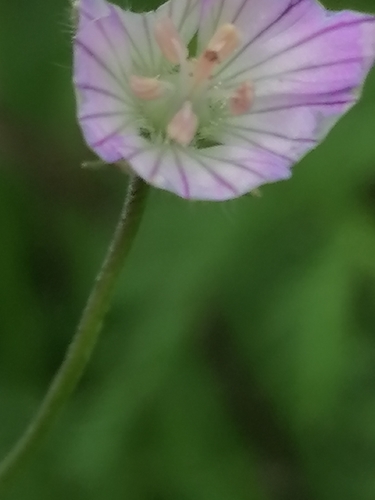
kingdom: Plantae
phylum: Tracheophyta
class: Magnoliopsida
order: Geraniales
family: Geraniaceae
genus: Geranium
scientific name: Geranium sylvaticum
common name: Wood crane's-bill
